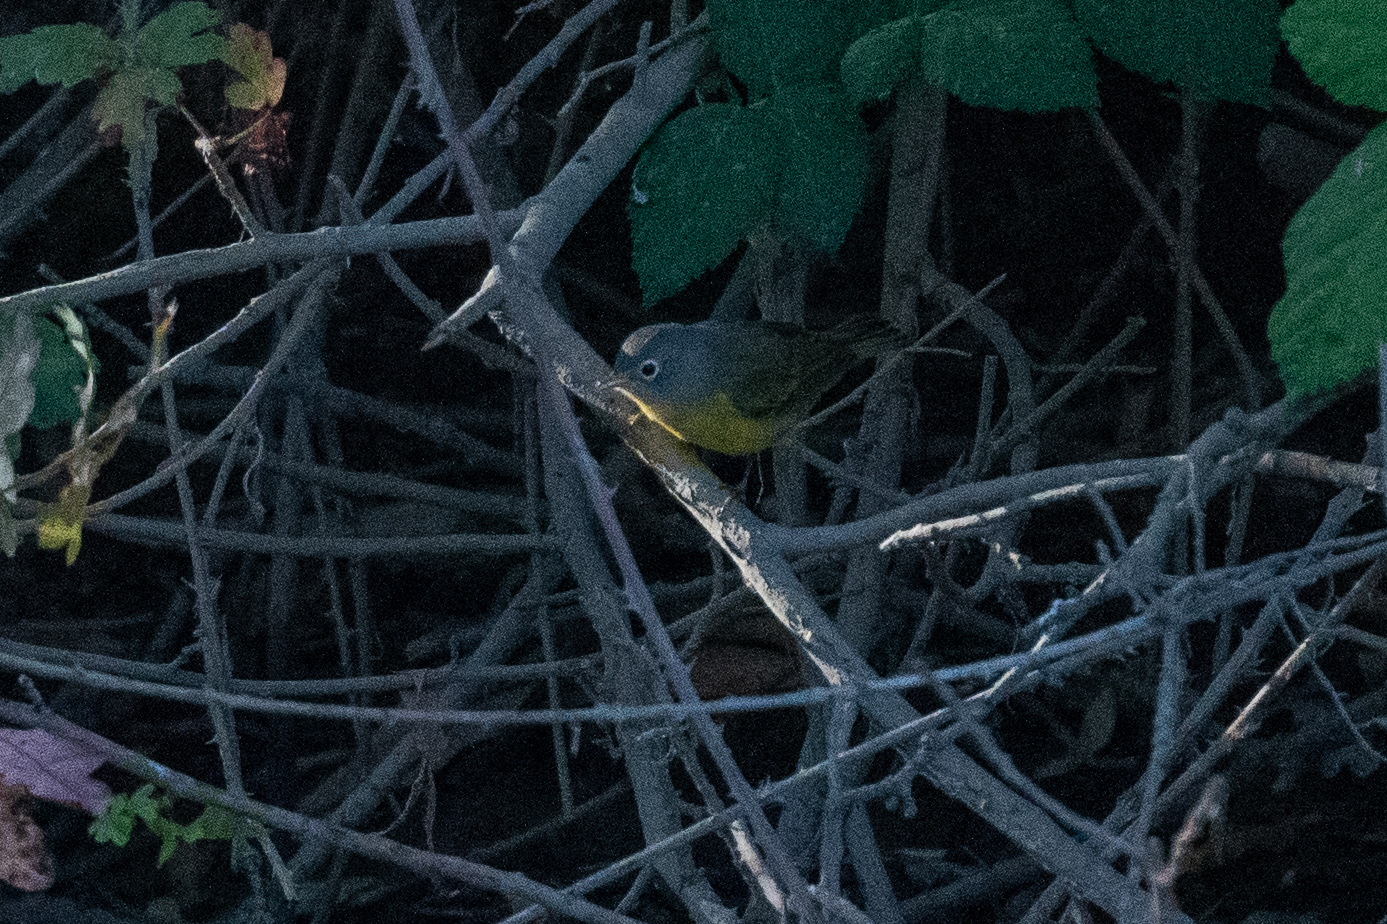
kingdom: Animalia
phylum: Chordata
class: Aves
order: Passeriformes
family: Parulidae
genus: Leiothlypis
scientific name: Leiothlypis ruficapilla
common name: Nashville warbler
